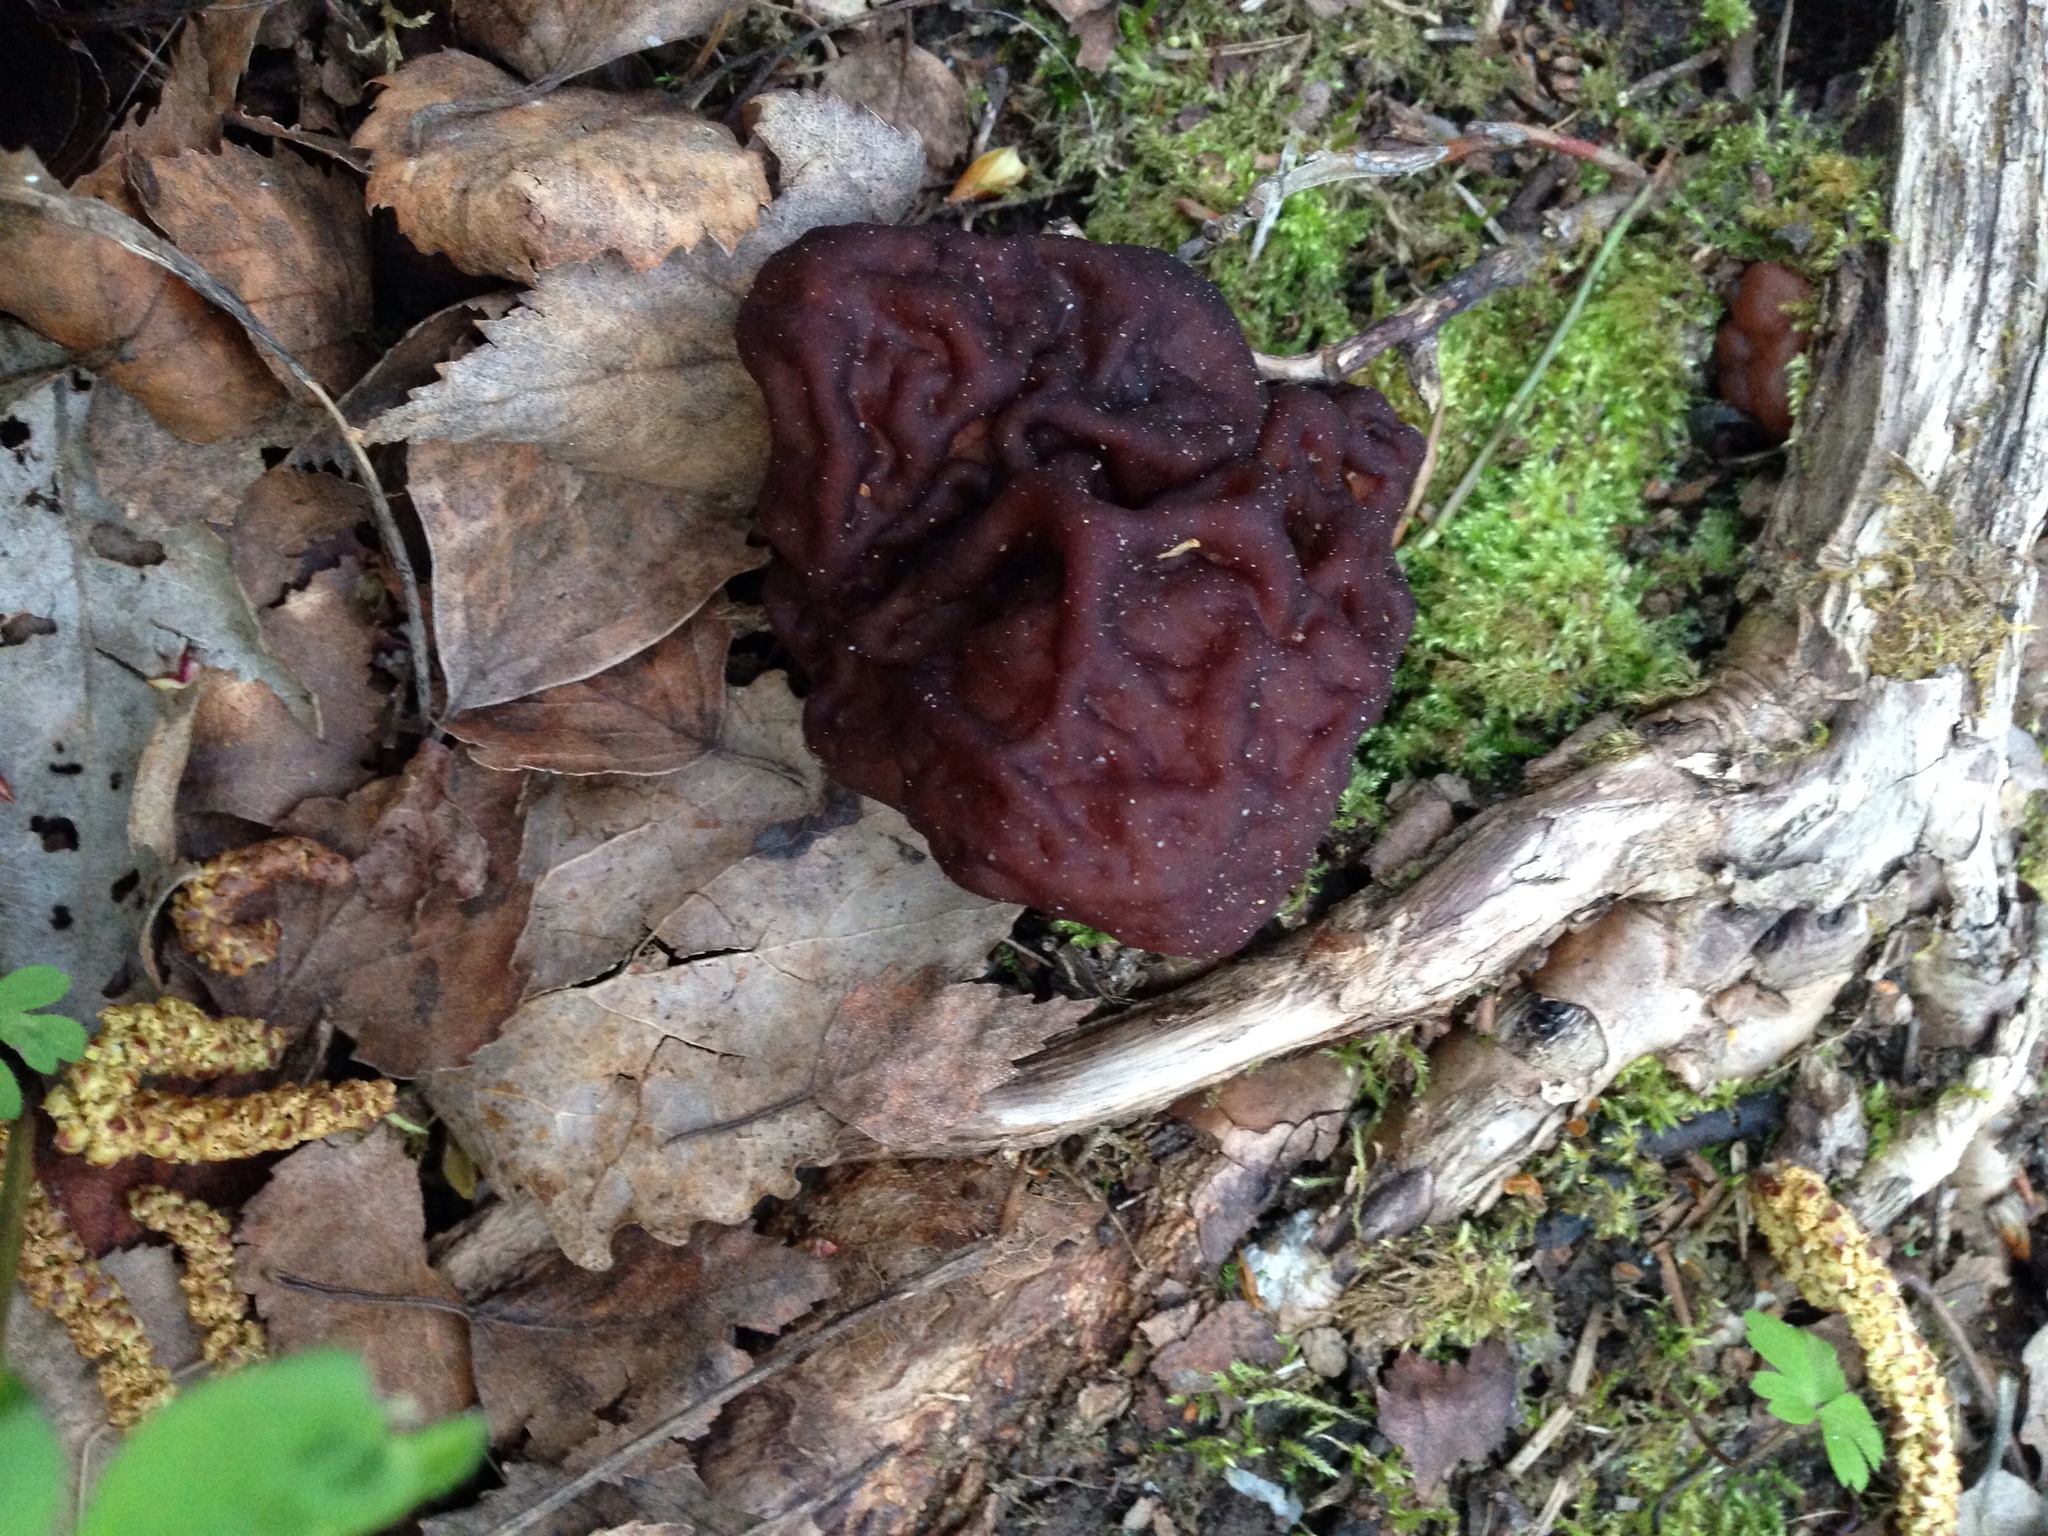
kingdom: Fungi
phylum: Ascomycota
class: Pezizomycetes
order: Pezizales
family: Discinaceae
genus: Gyromitra
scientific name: Gyromitra esculenta
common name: False morel
